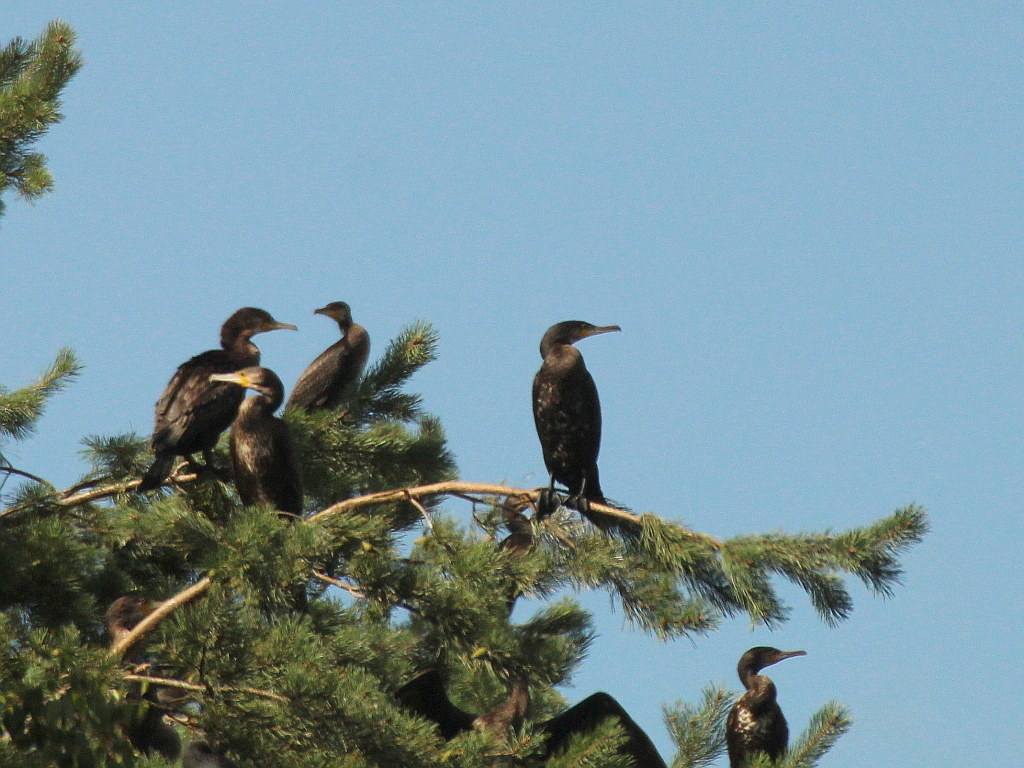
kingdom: Animalia
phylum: Chordata
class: Aves
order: Suliformes
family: Phalacrocoracidae
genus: Phalacrocorax
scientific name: Phalacrocorax carbo
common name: Great cormorant
